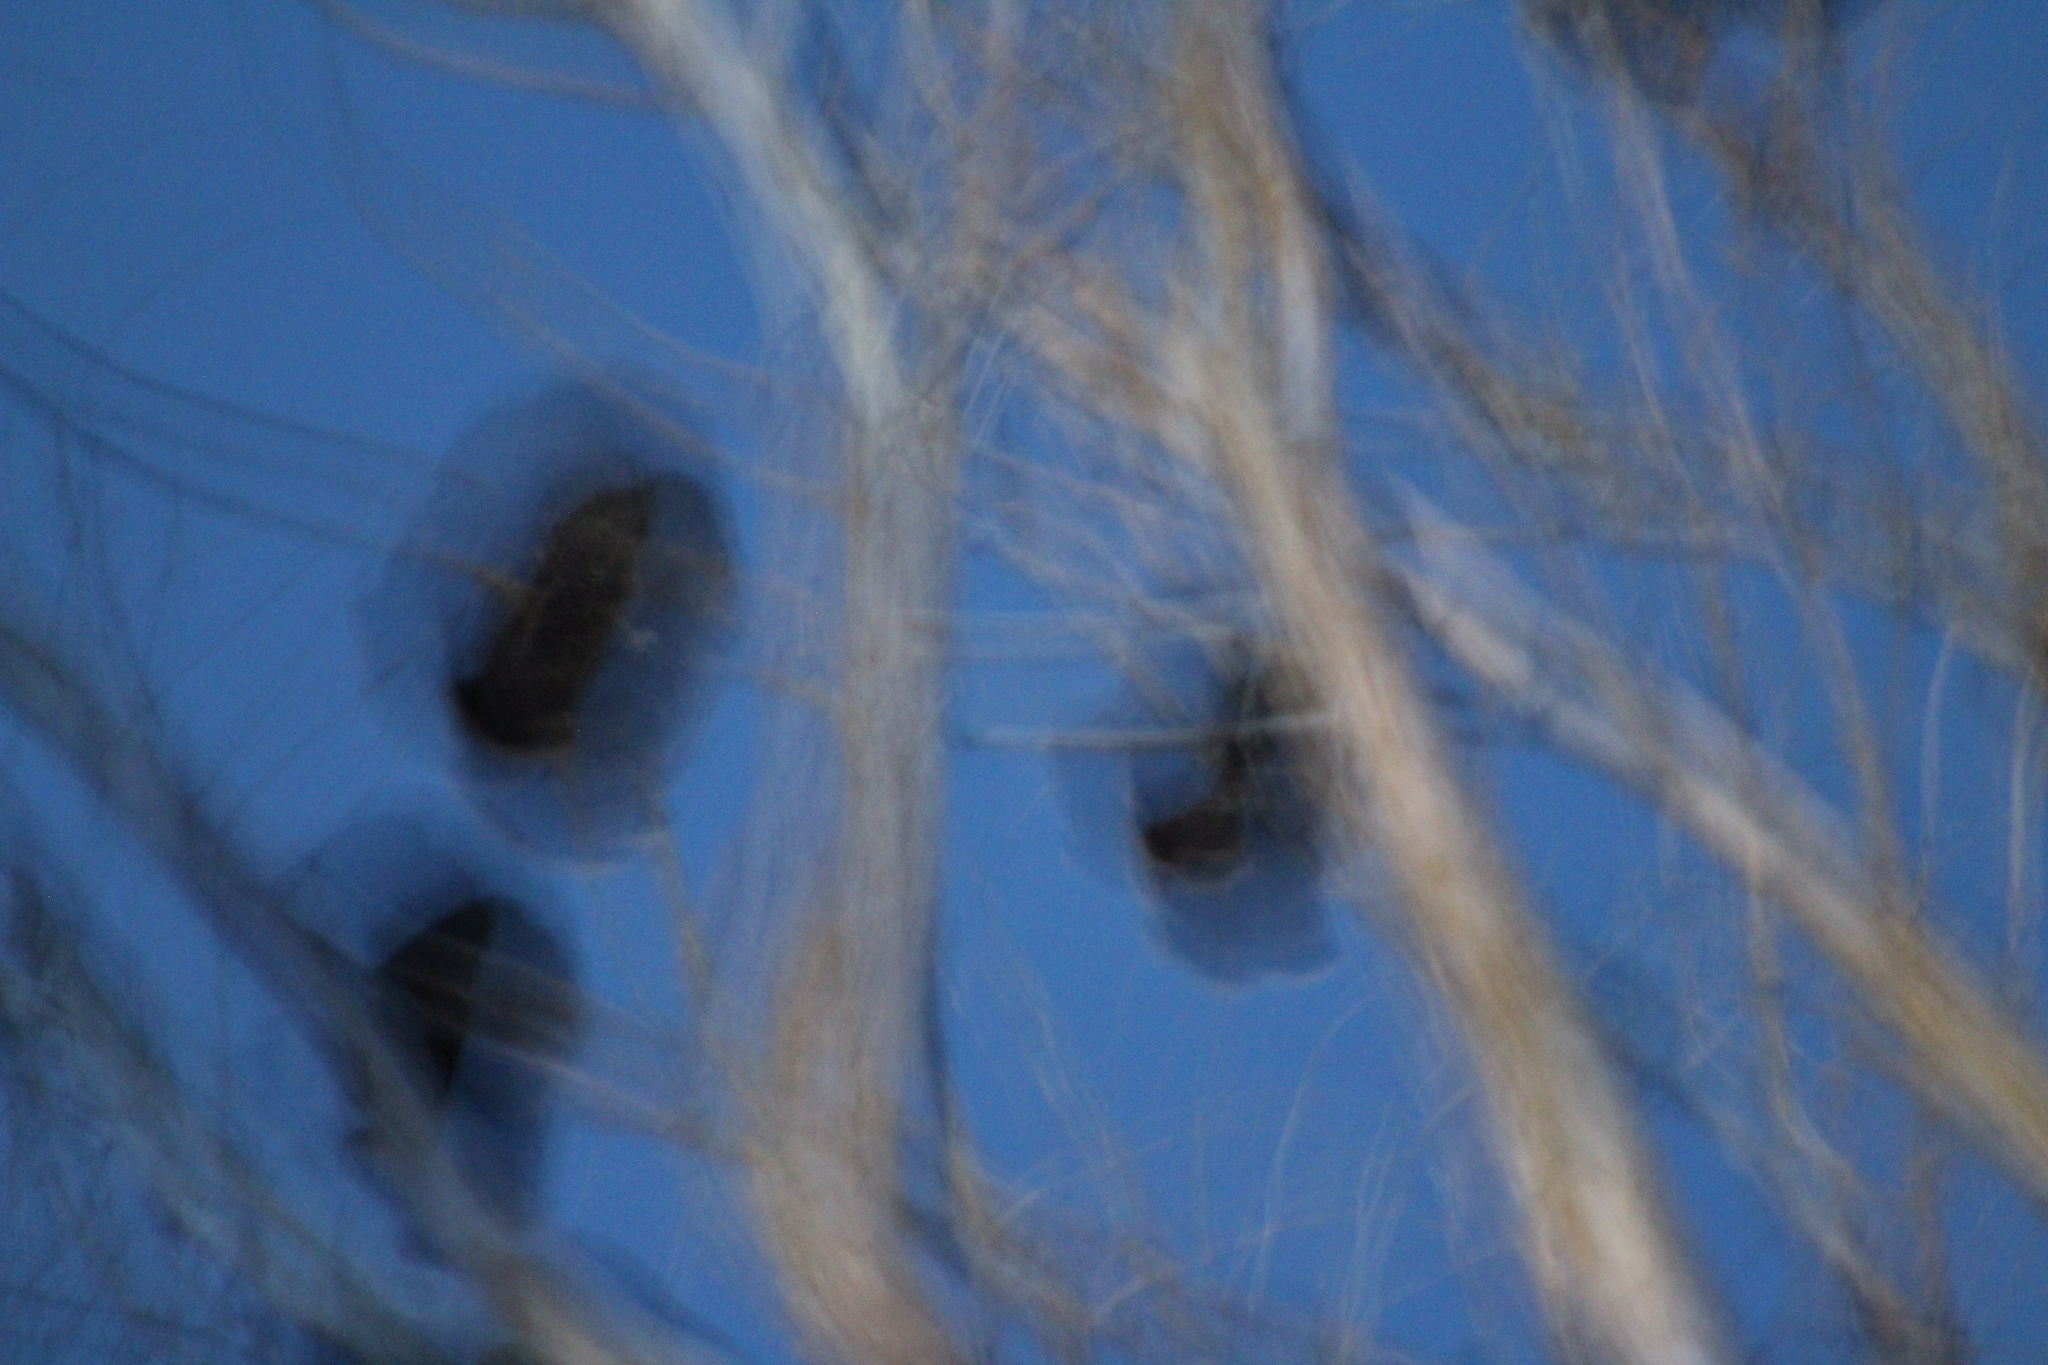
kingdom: Animalia
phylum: Chordata
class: Aves
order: Galliformes
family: Phasianidae
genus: Meleagris
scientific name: Meleagris gallopavo
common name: Wild turkey
